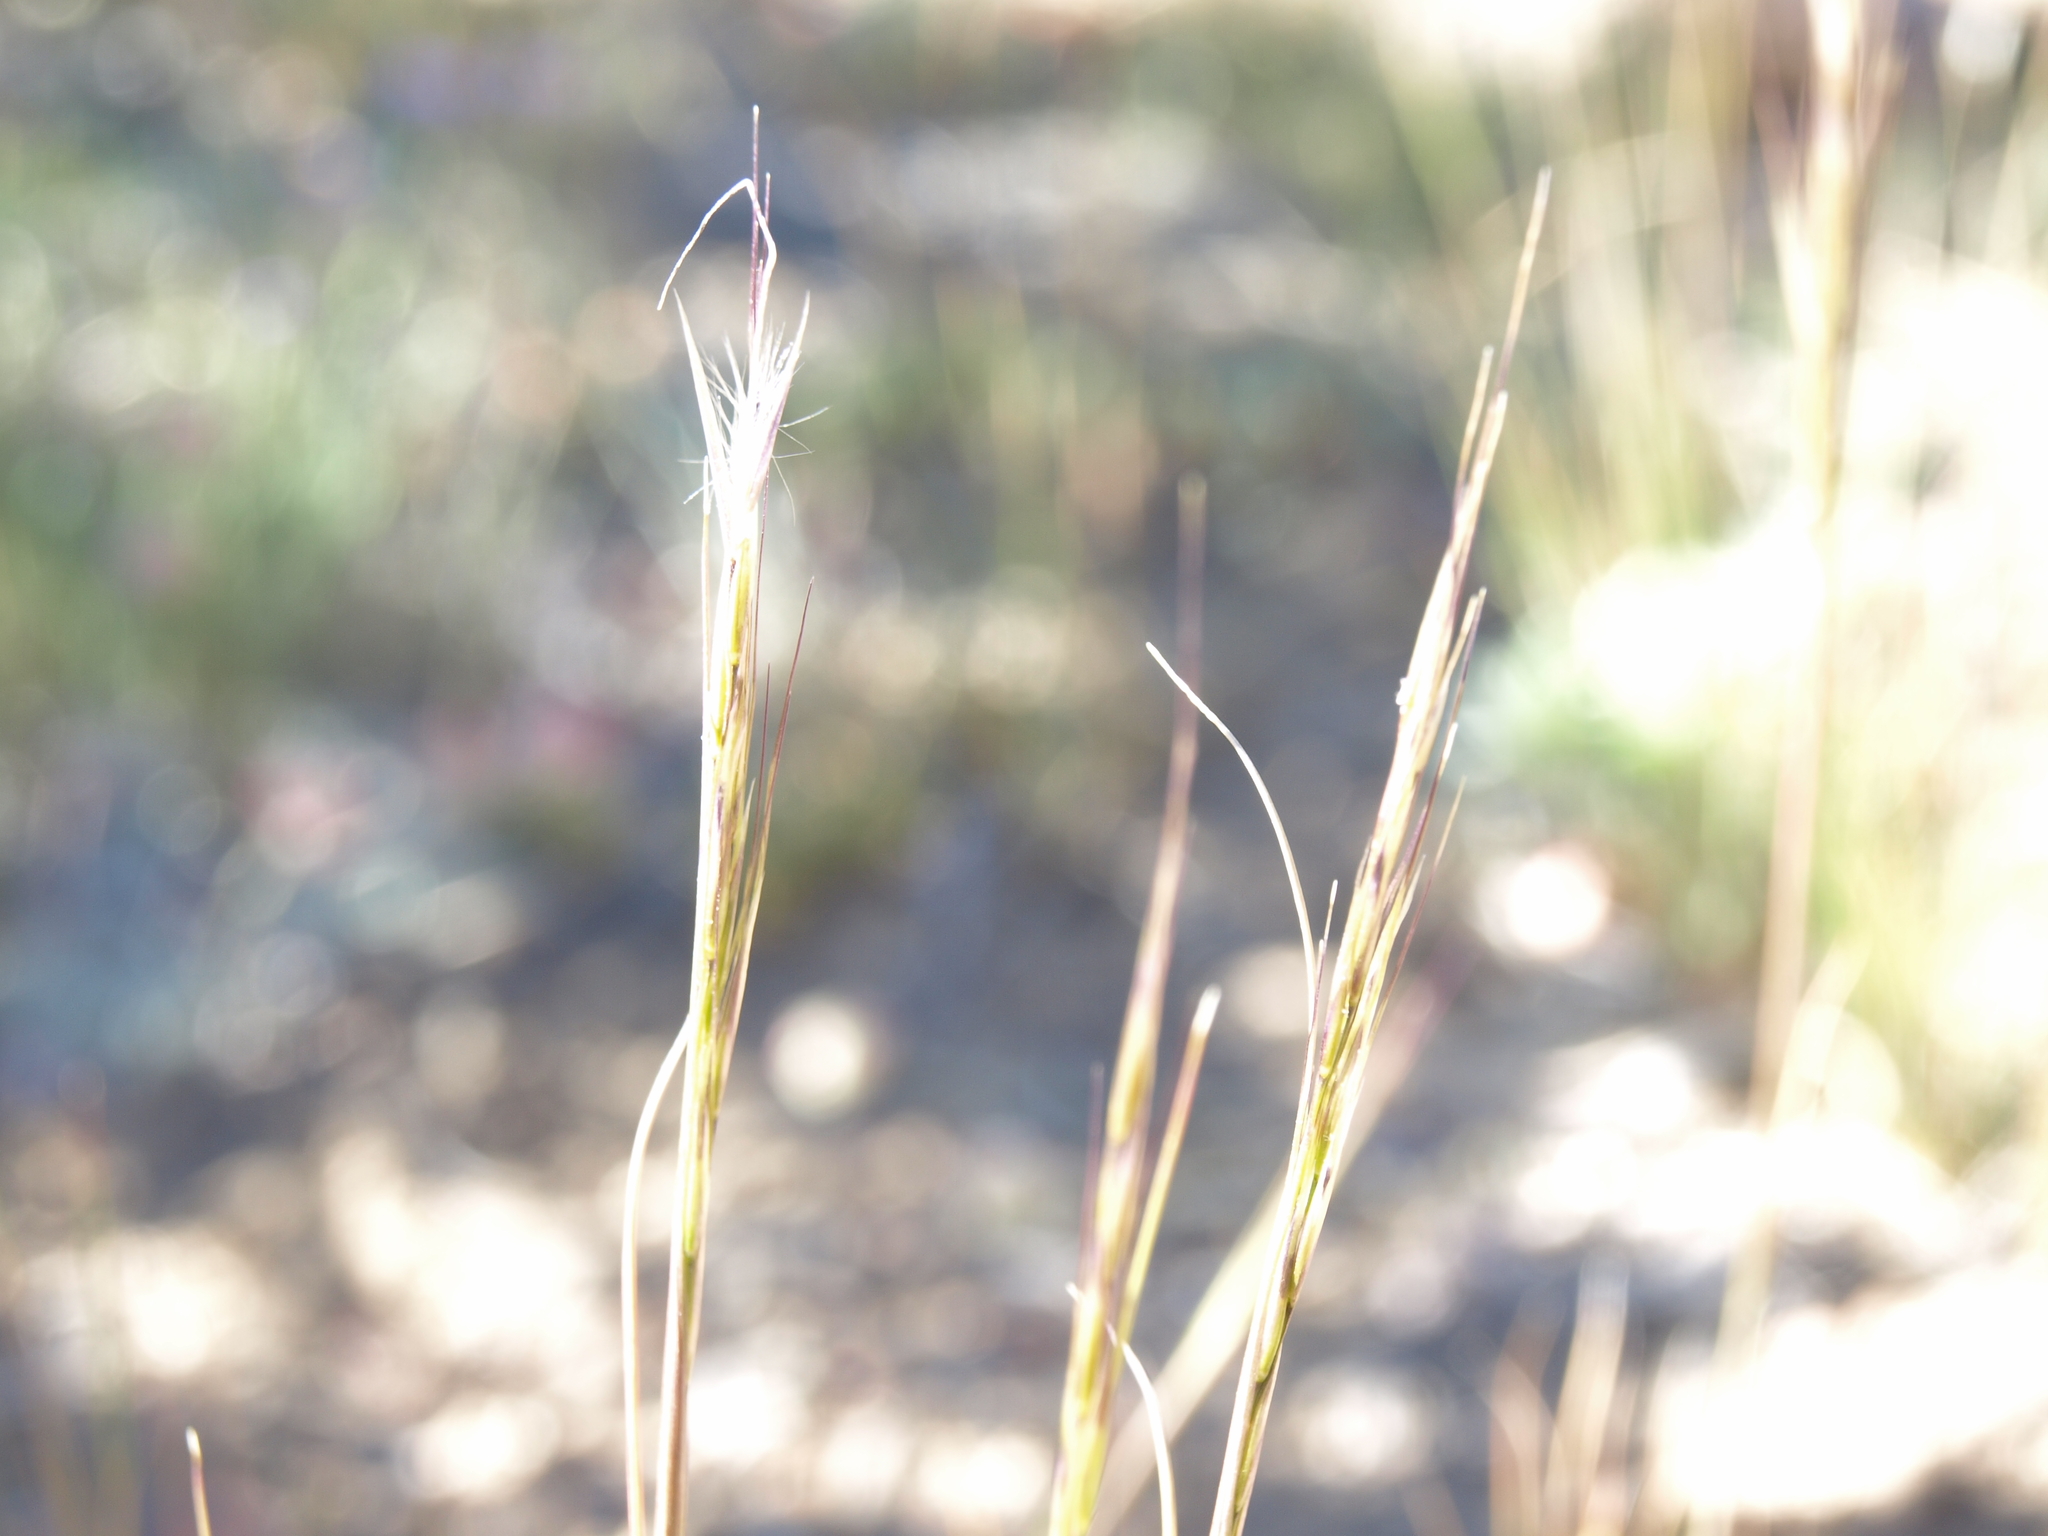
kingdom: Plantae
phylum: Tracheophyta
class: Liliopsida
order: Poales
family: Poaceae
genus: Eriocoma
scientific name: Eriocoma pinetorum
